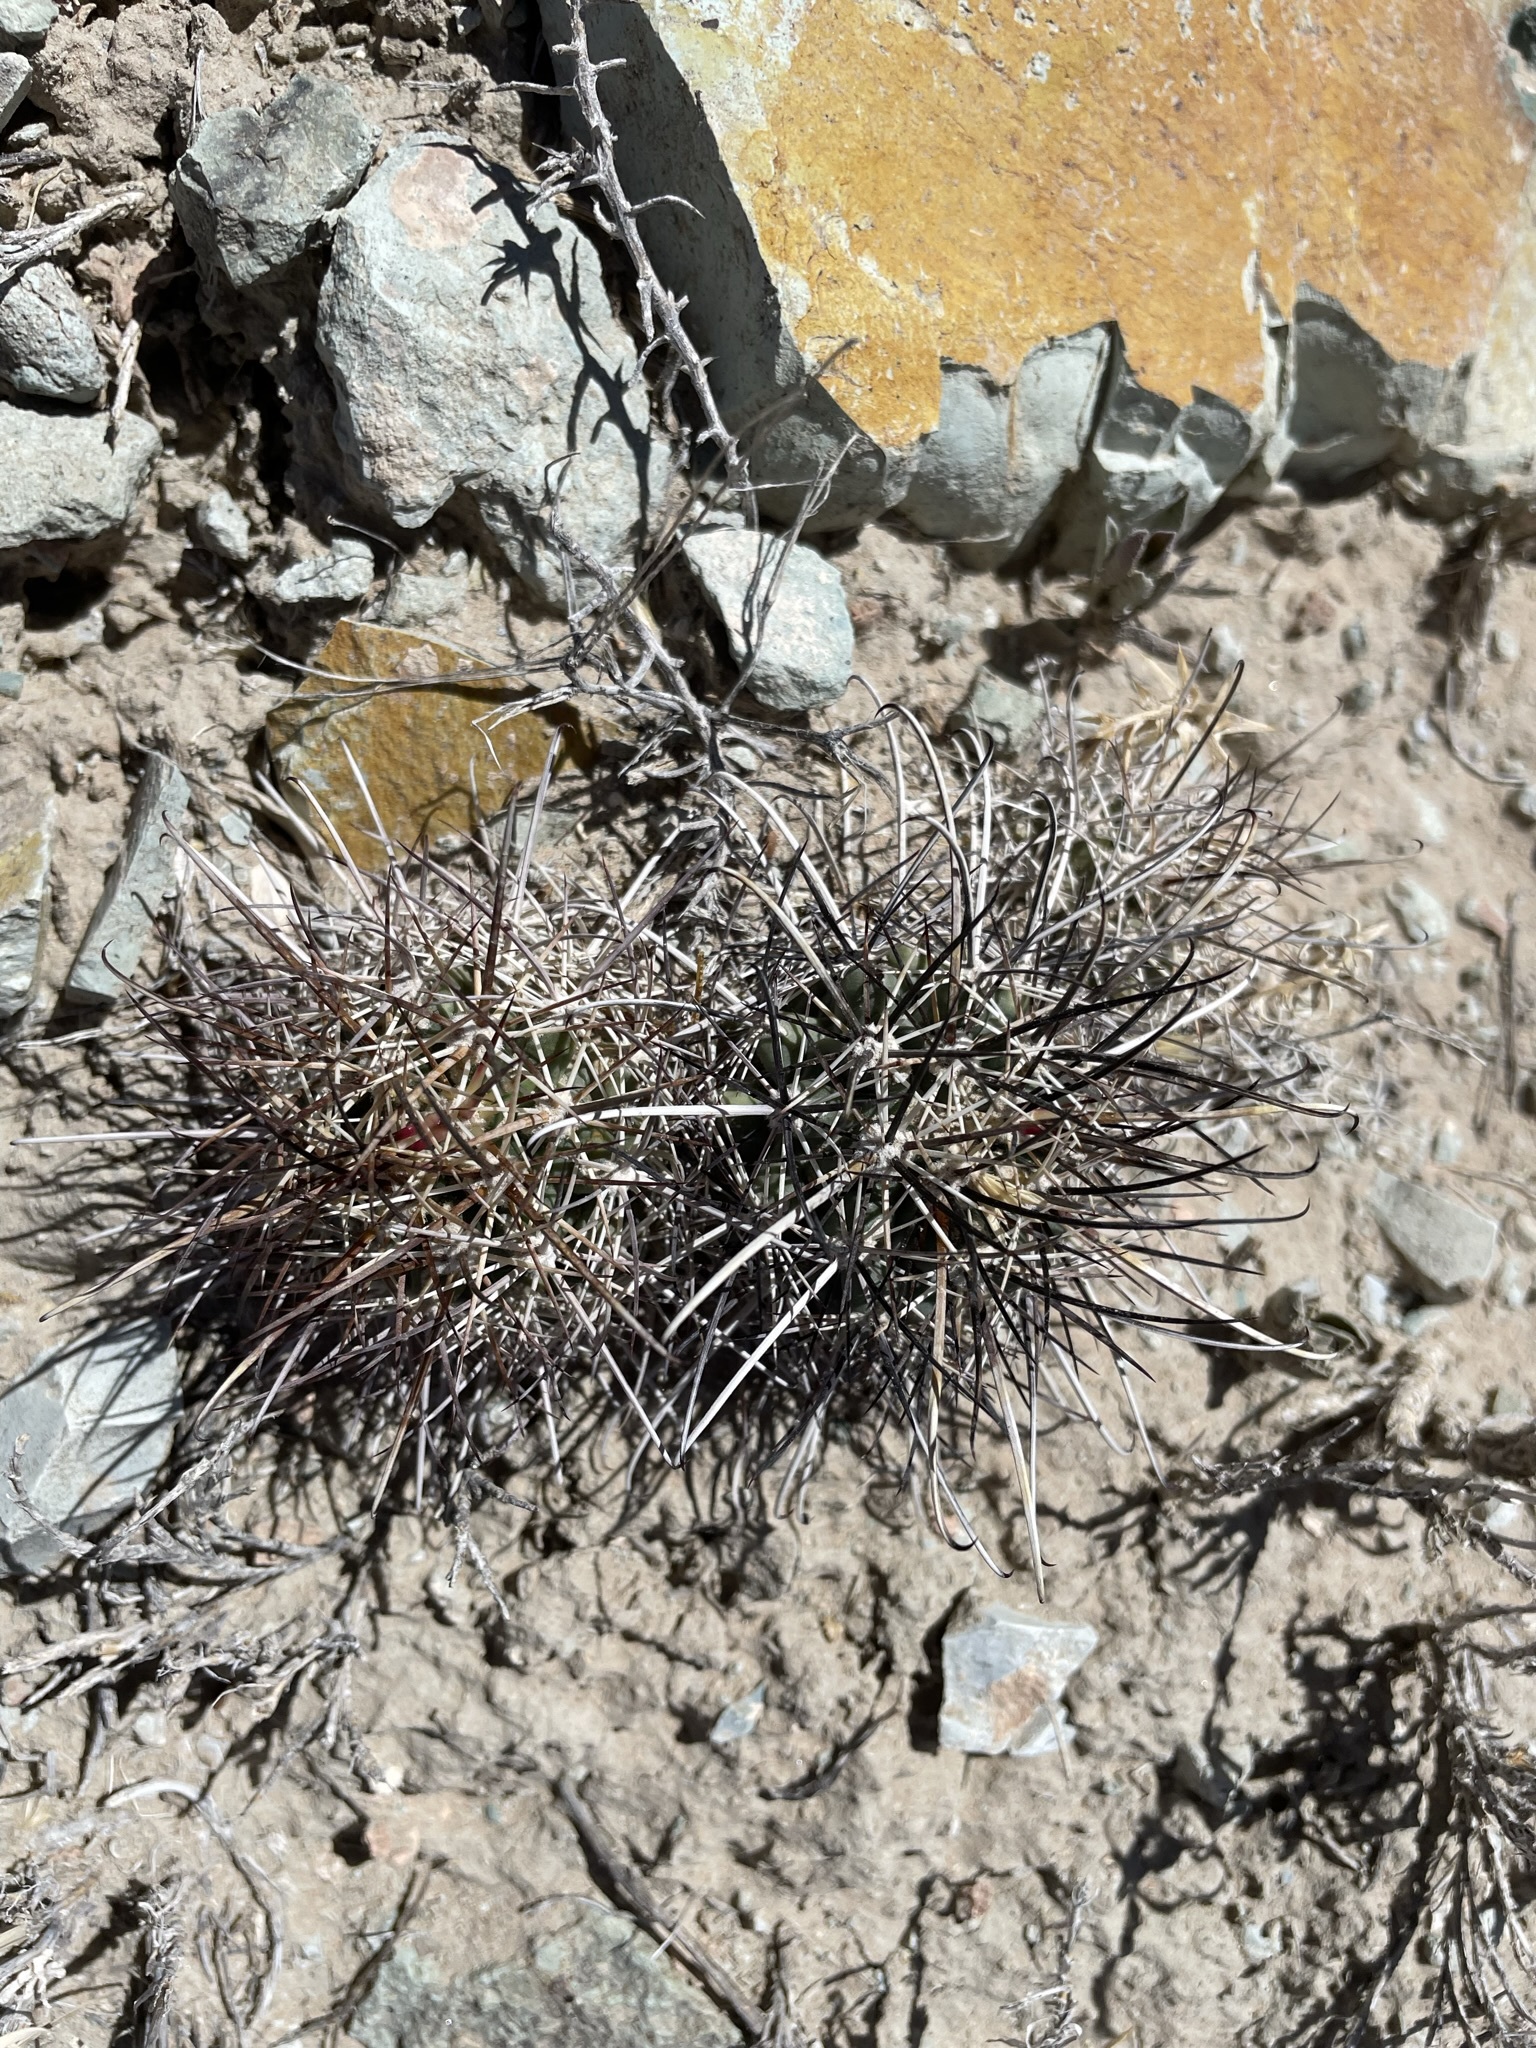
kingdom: Plantae
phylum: Tracheophyta
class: Magnoliopsida
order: Caryophyllales
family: Cactaceae
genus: Sclerocactus
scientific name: Sclerocactus parviflorus
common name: Small-flower fishhook cactus
